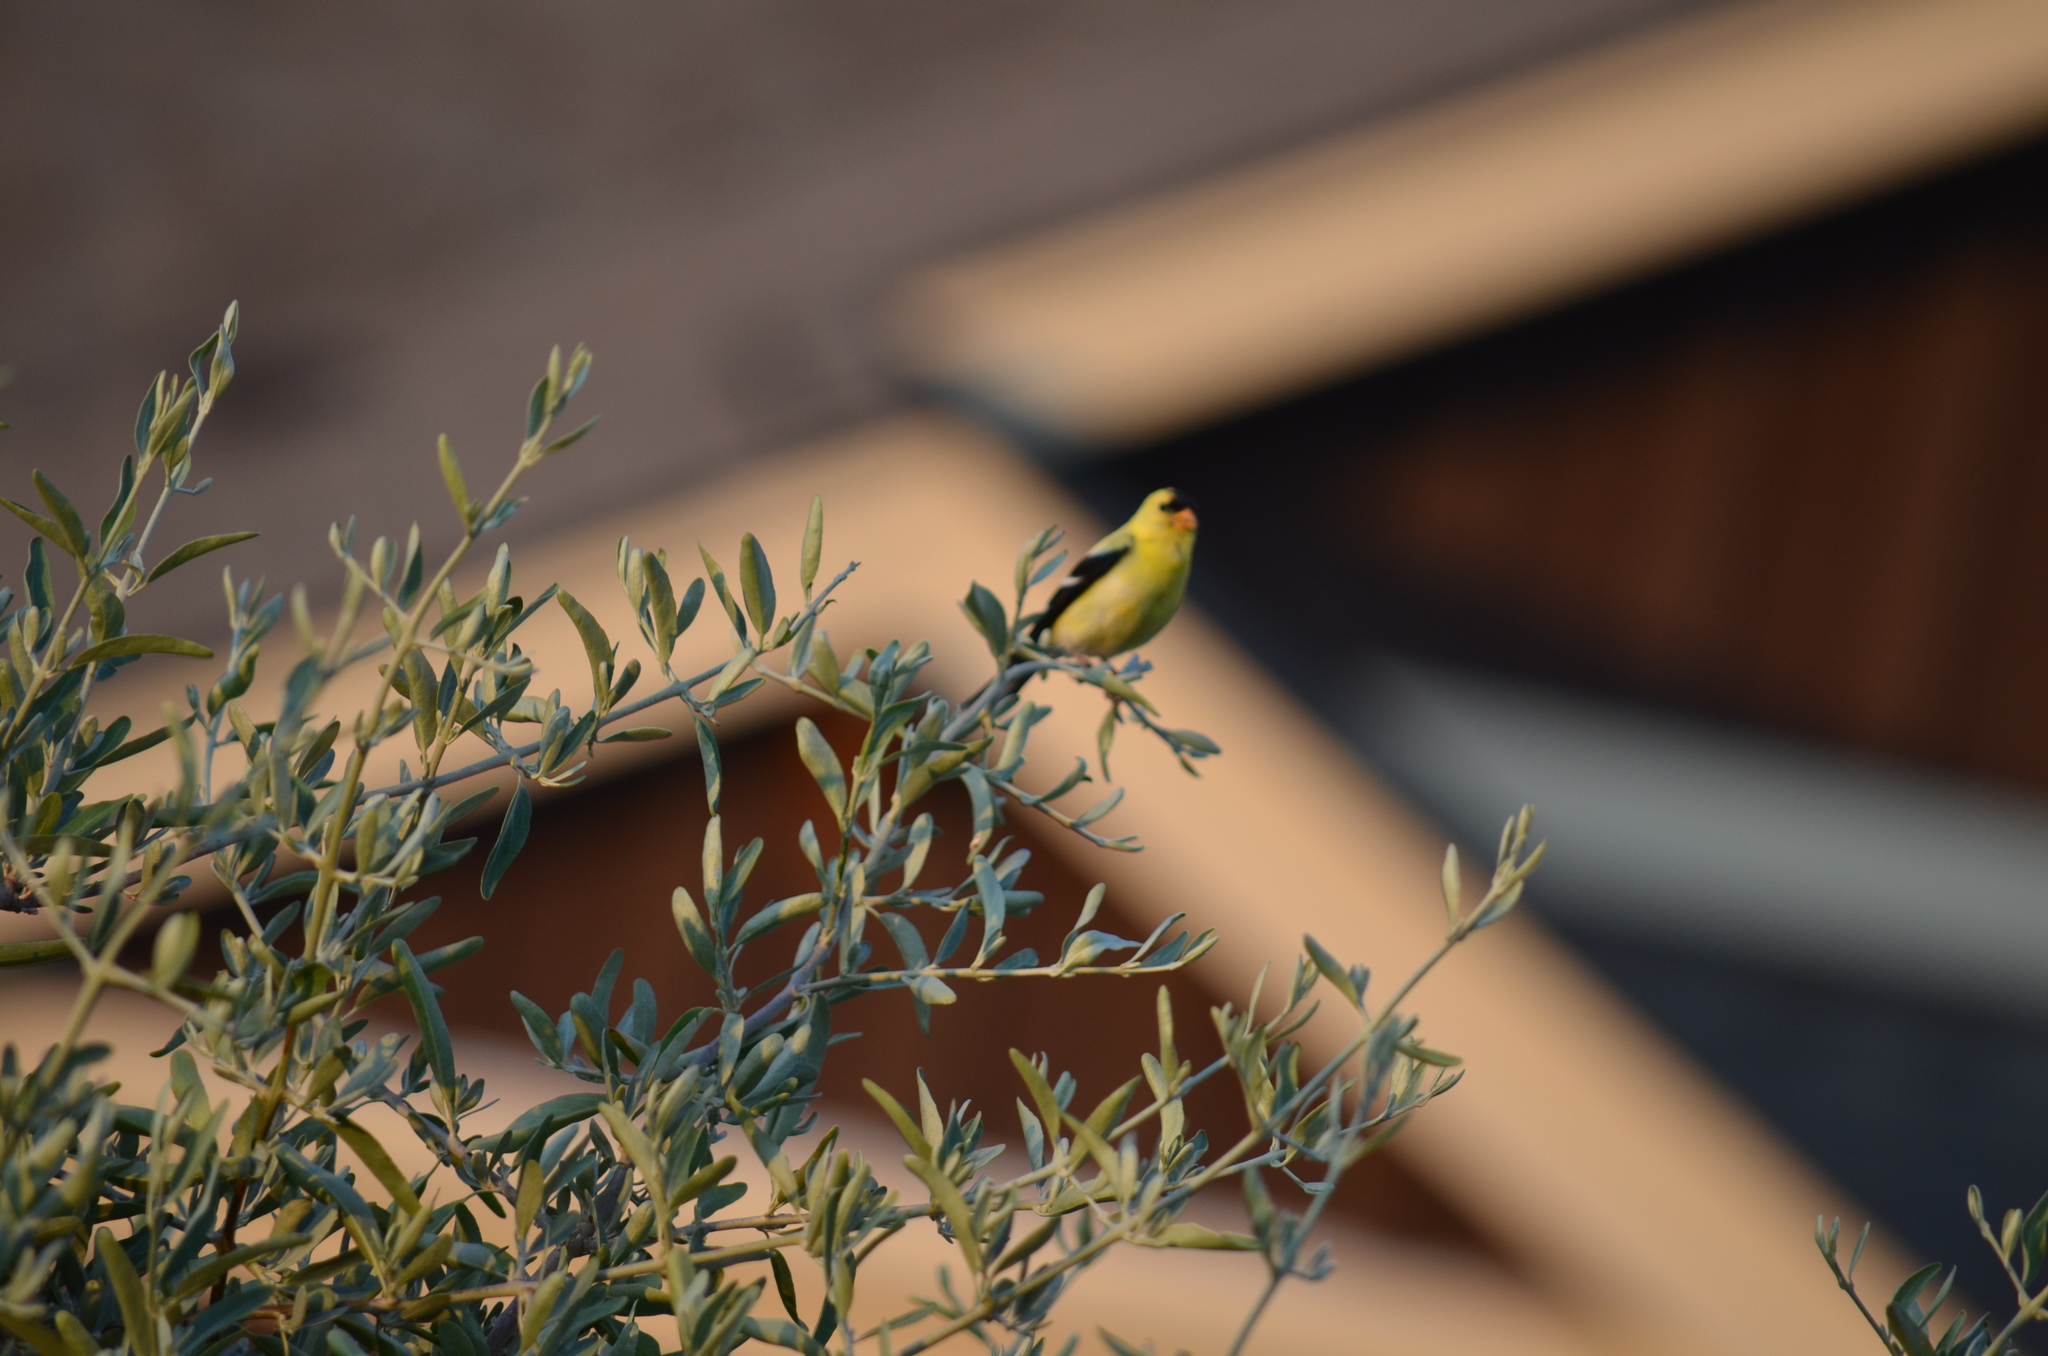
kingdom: Animalia
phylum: Chordata
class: Aves
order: Passeriformes
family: Fringillidae
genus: Spinus
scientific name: Spinus tristis
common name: American goldfinch
